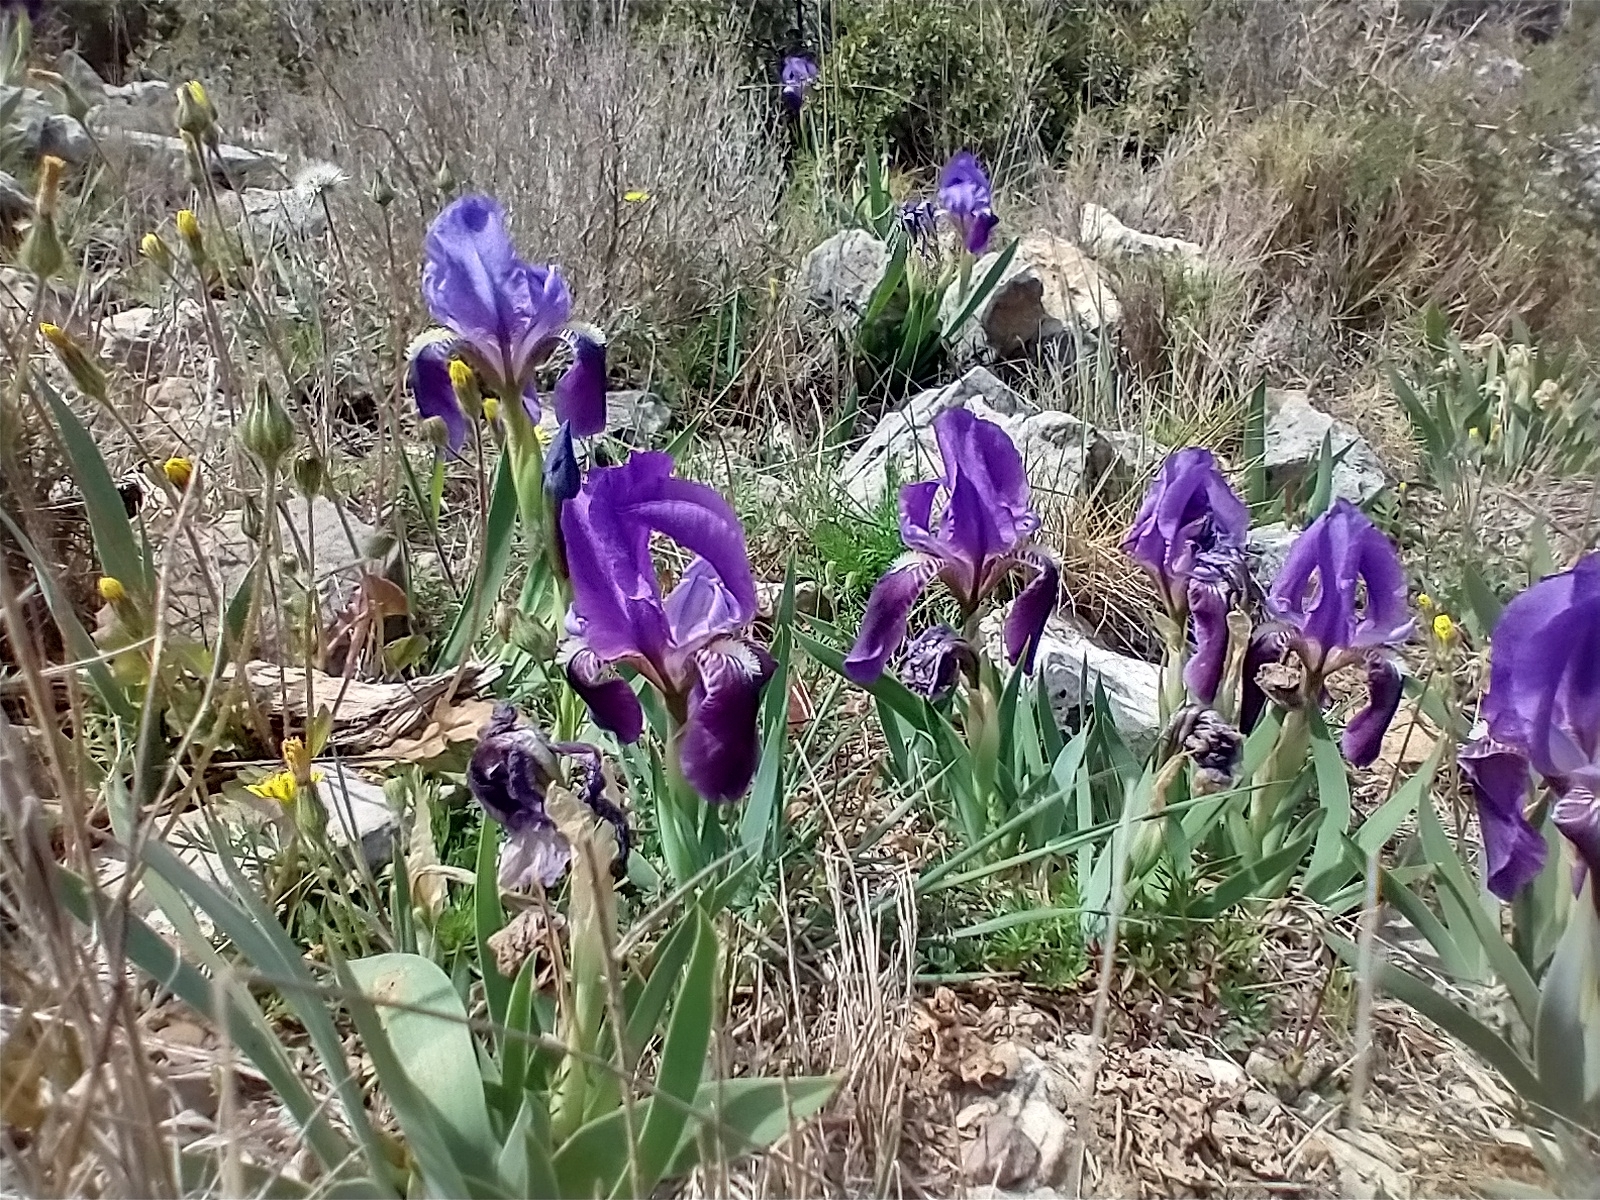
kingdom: Plantae
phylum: Tracheophyta
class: Liliopsida
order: Asparagales
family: Iridaceae
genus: Iris
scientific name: Iris lutescens
